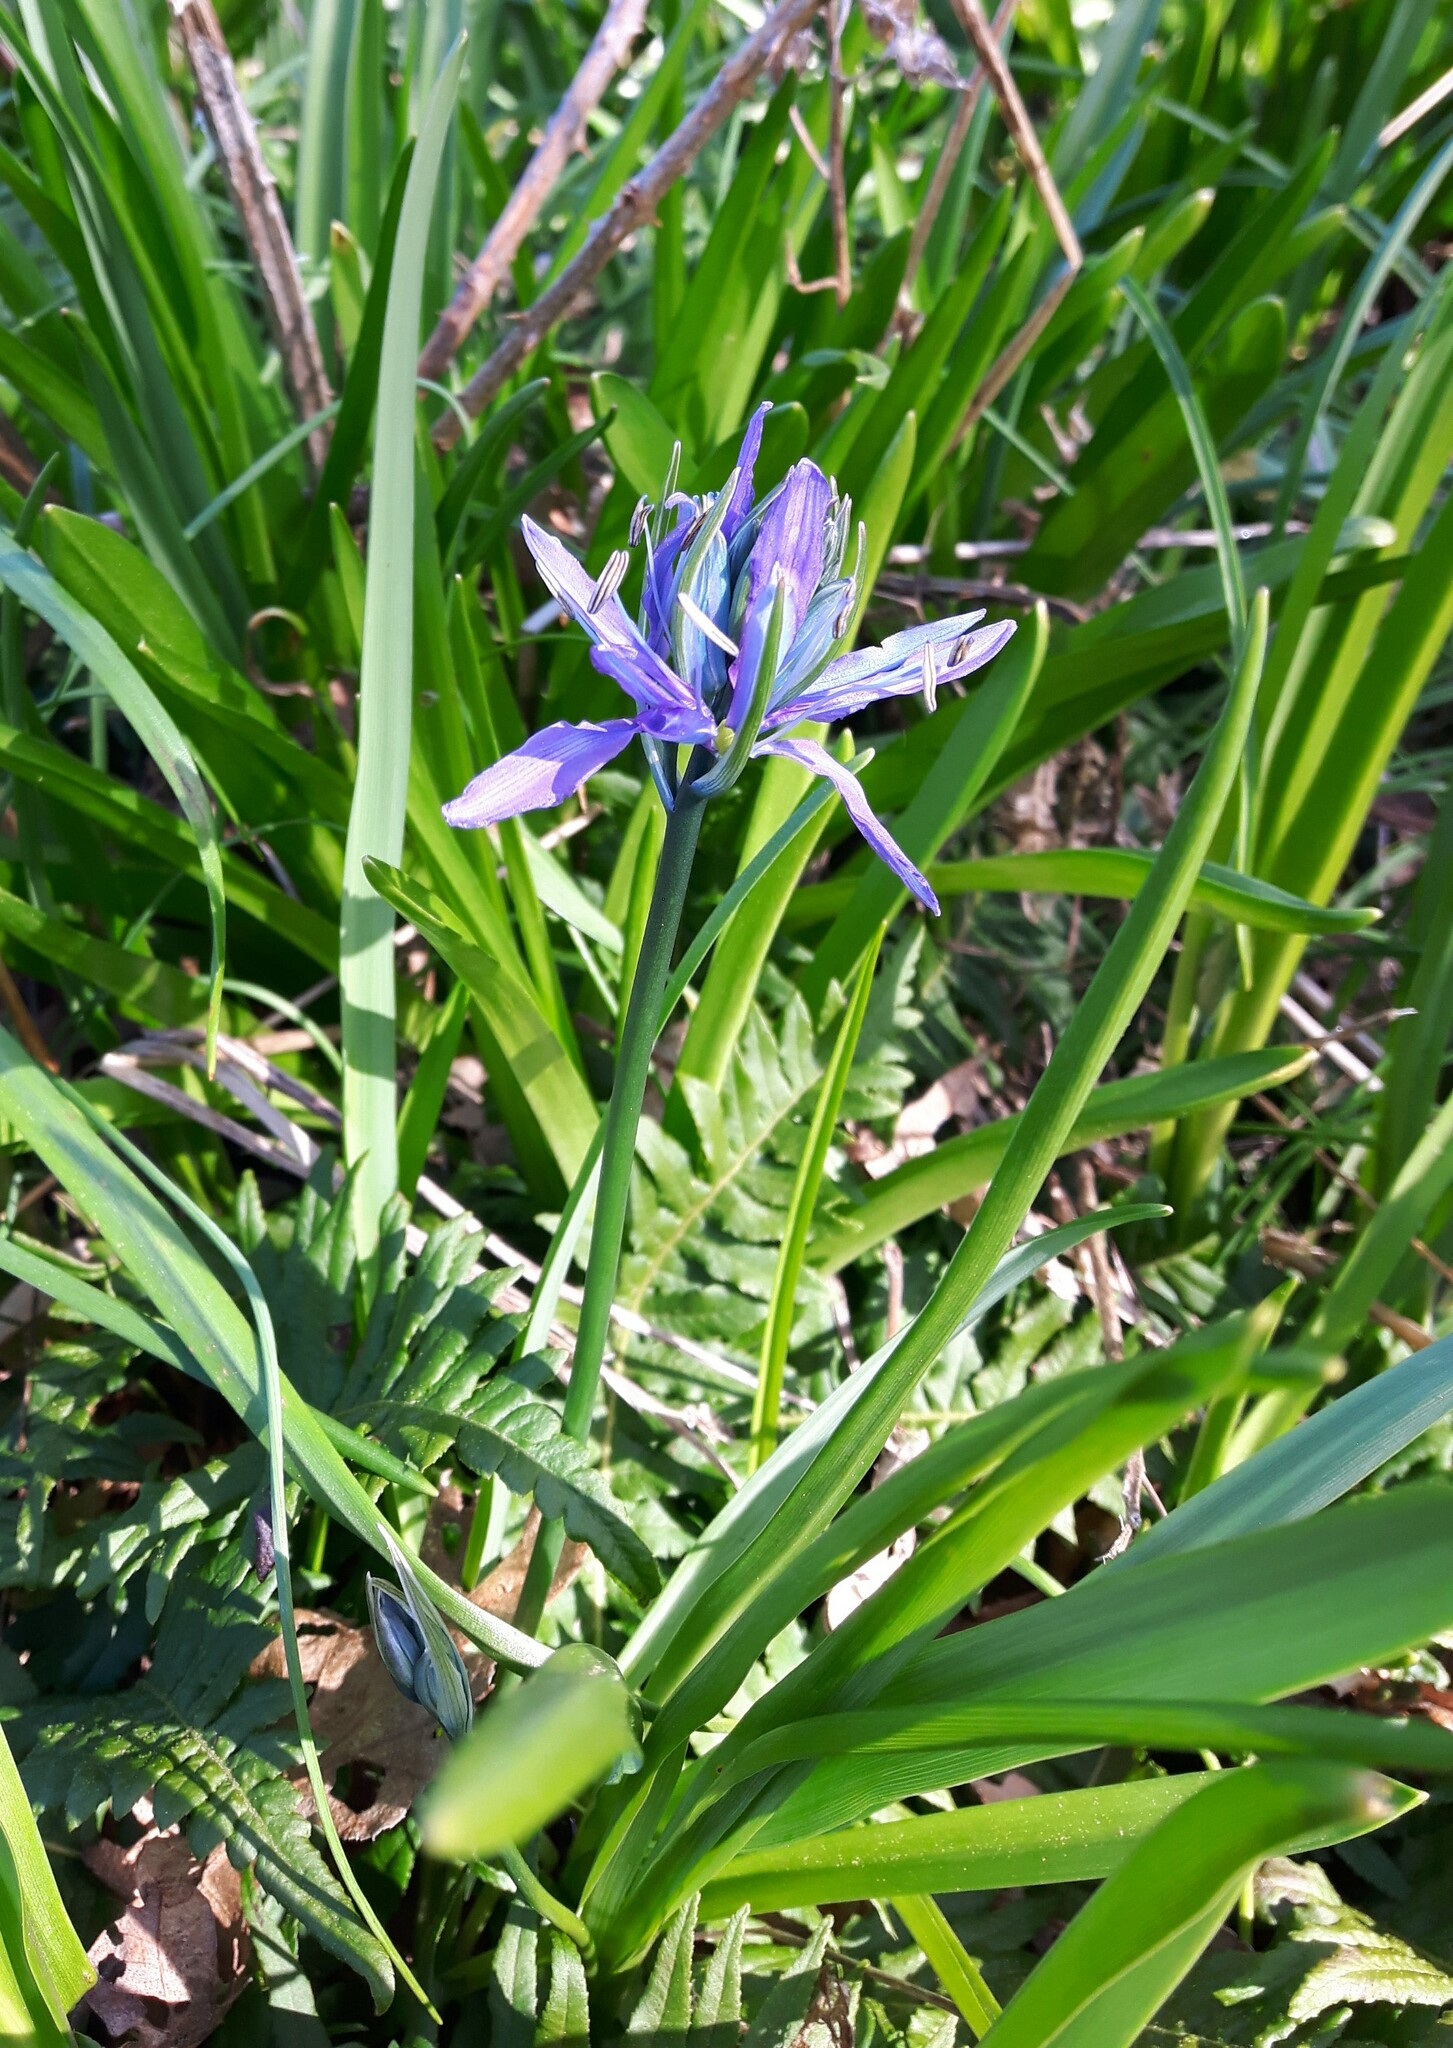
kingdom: Plantae
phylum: Tracheophyta
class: Liliopsida
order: Asparagales
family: Asparagaceae
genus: Camassia
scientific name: Camassia quamash
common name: Common camas
